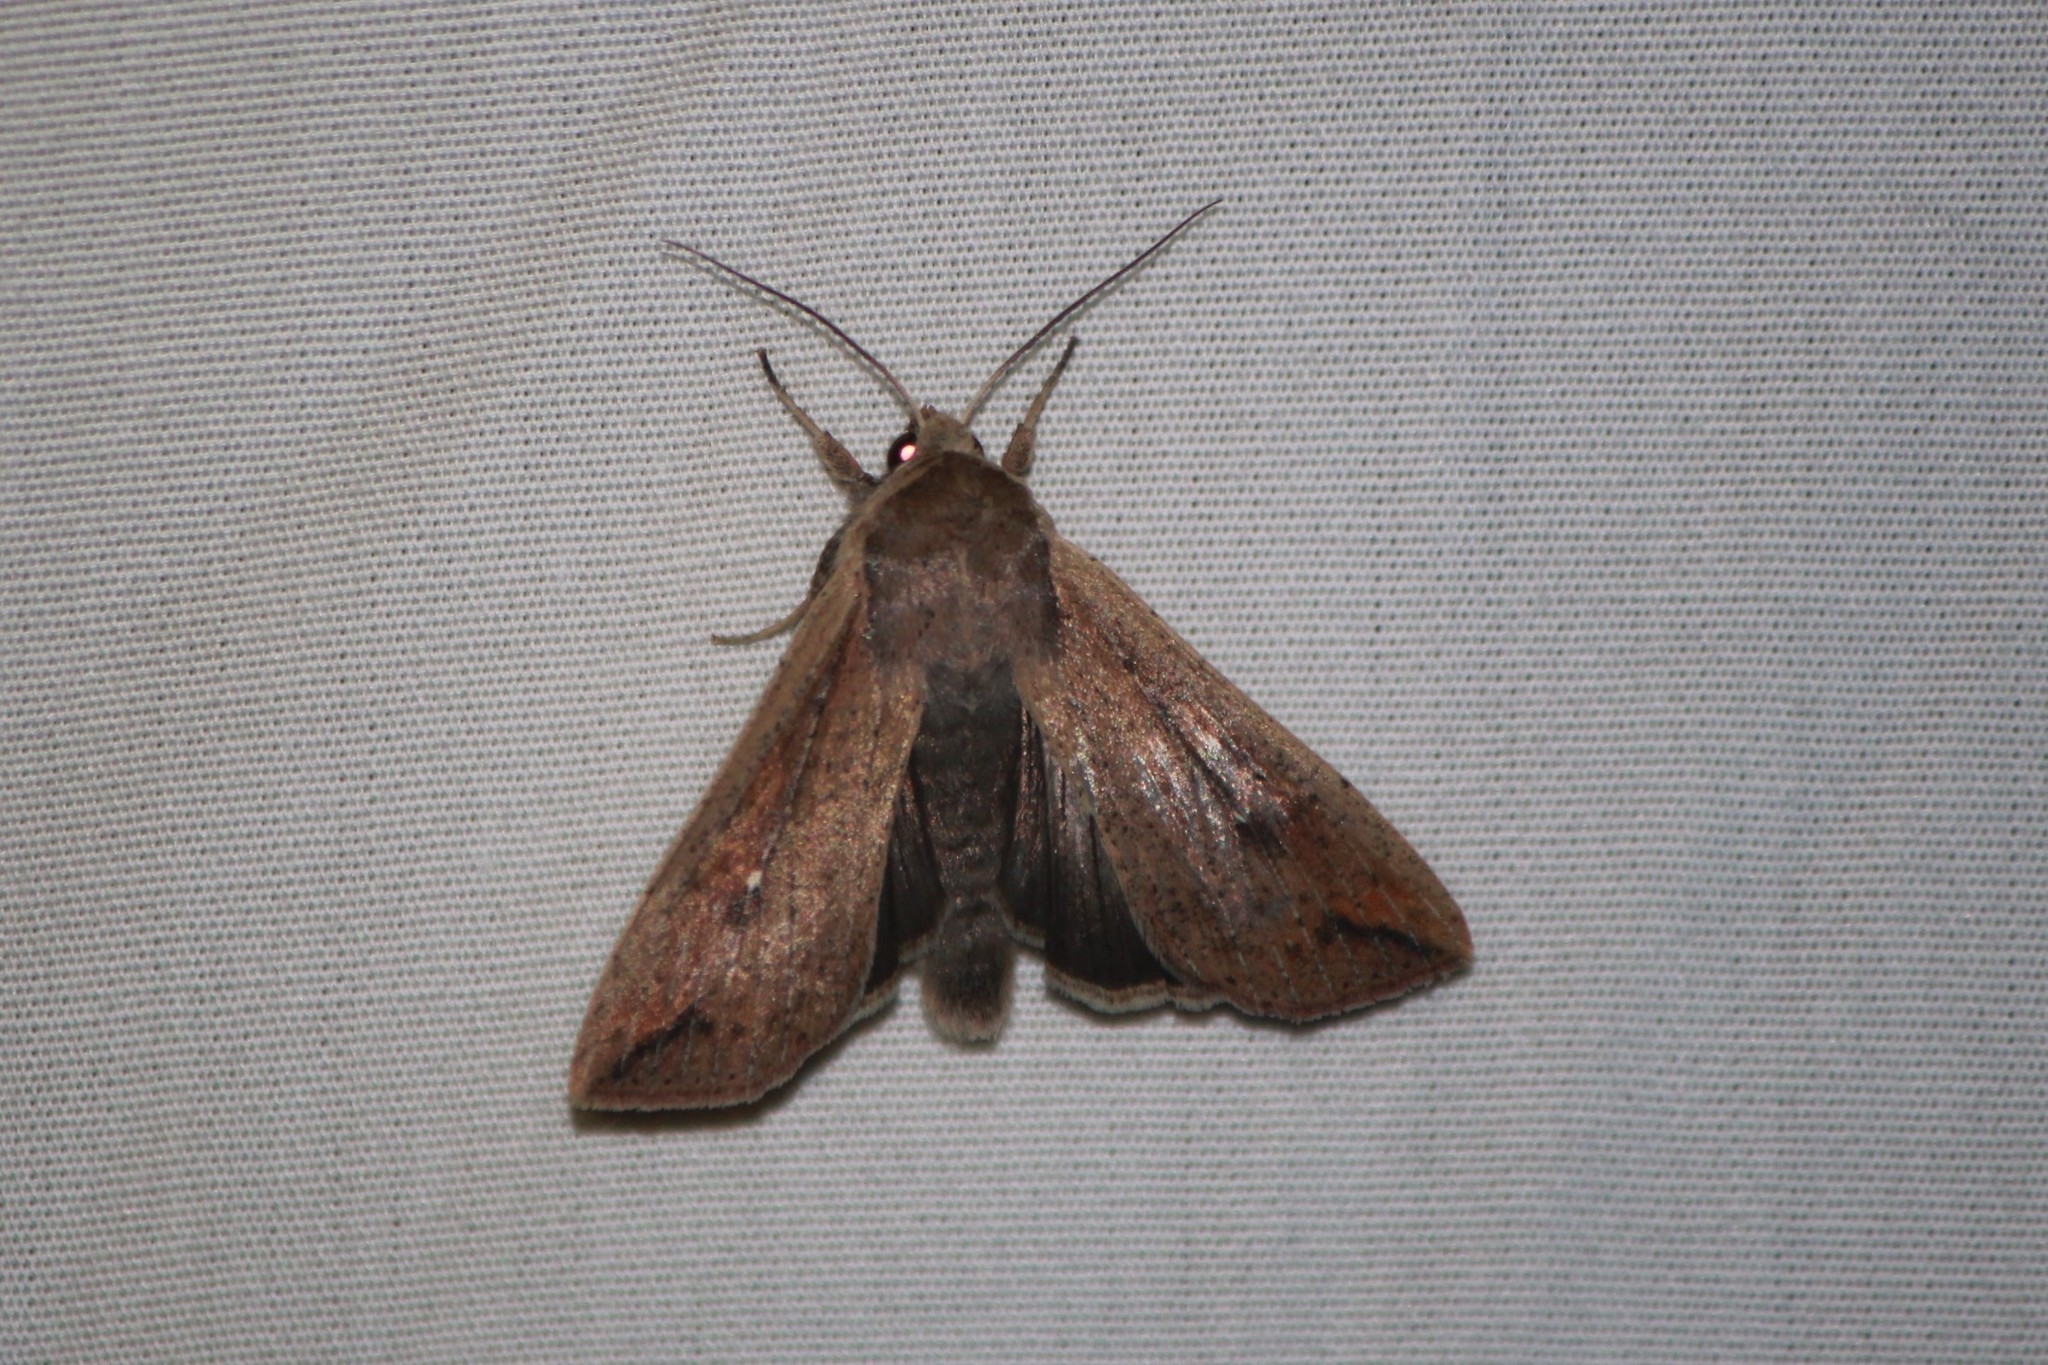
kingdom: Animalia
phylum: Arthropoda
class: Insecta
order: Lepidoptera
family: Noctuidae
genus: Mythimna
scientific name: Mythimna unipuncta
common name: White-speck
